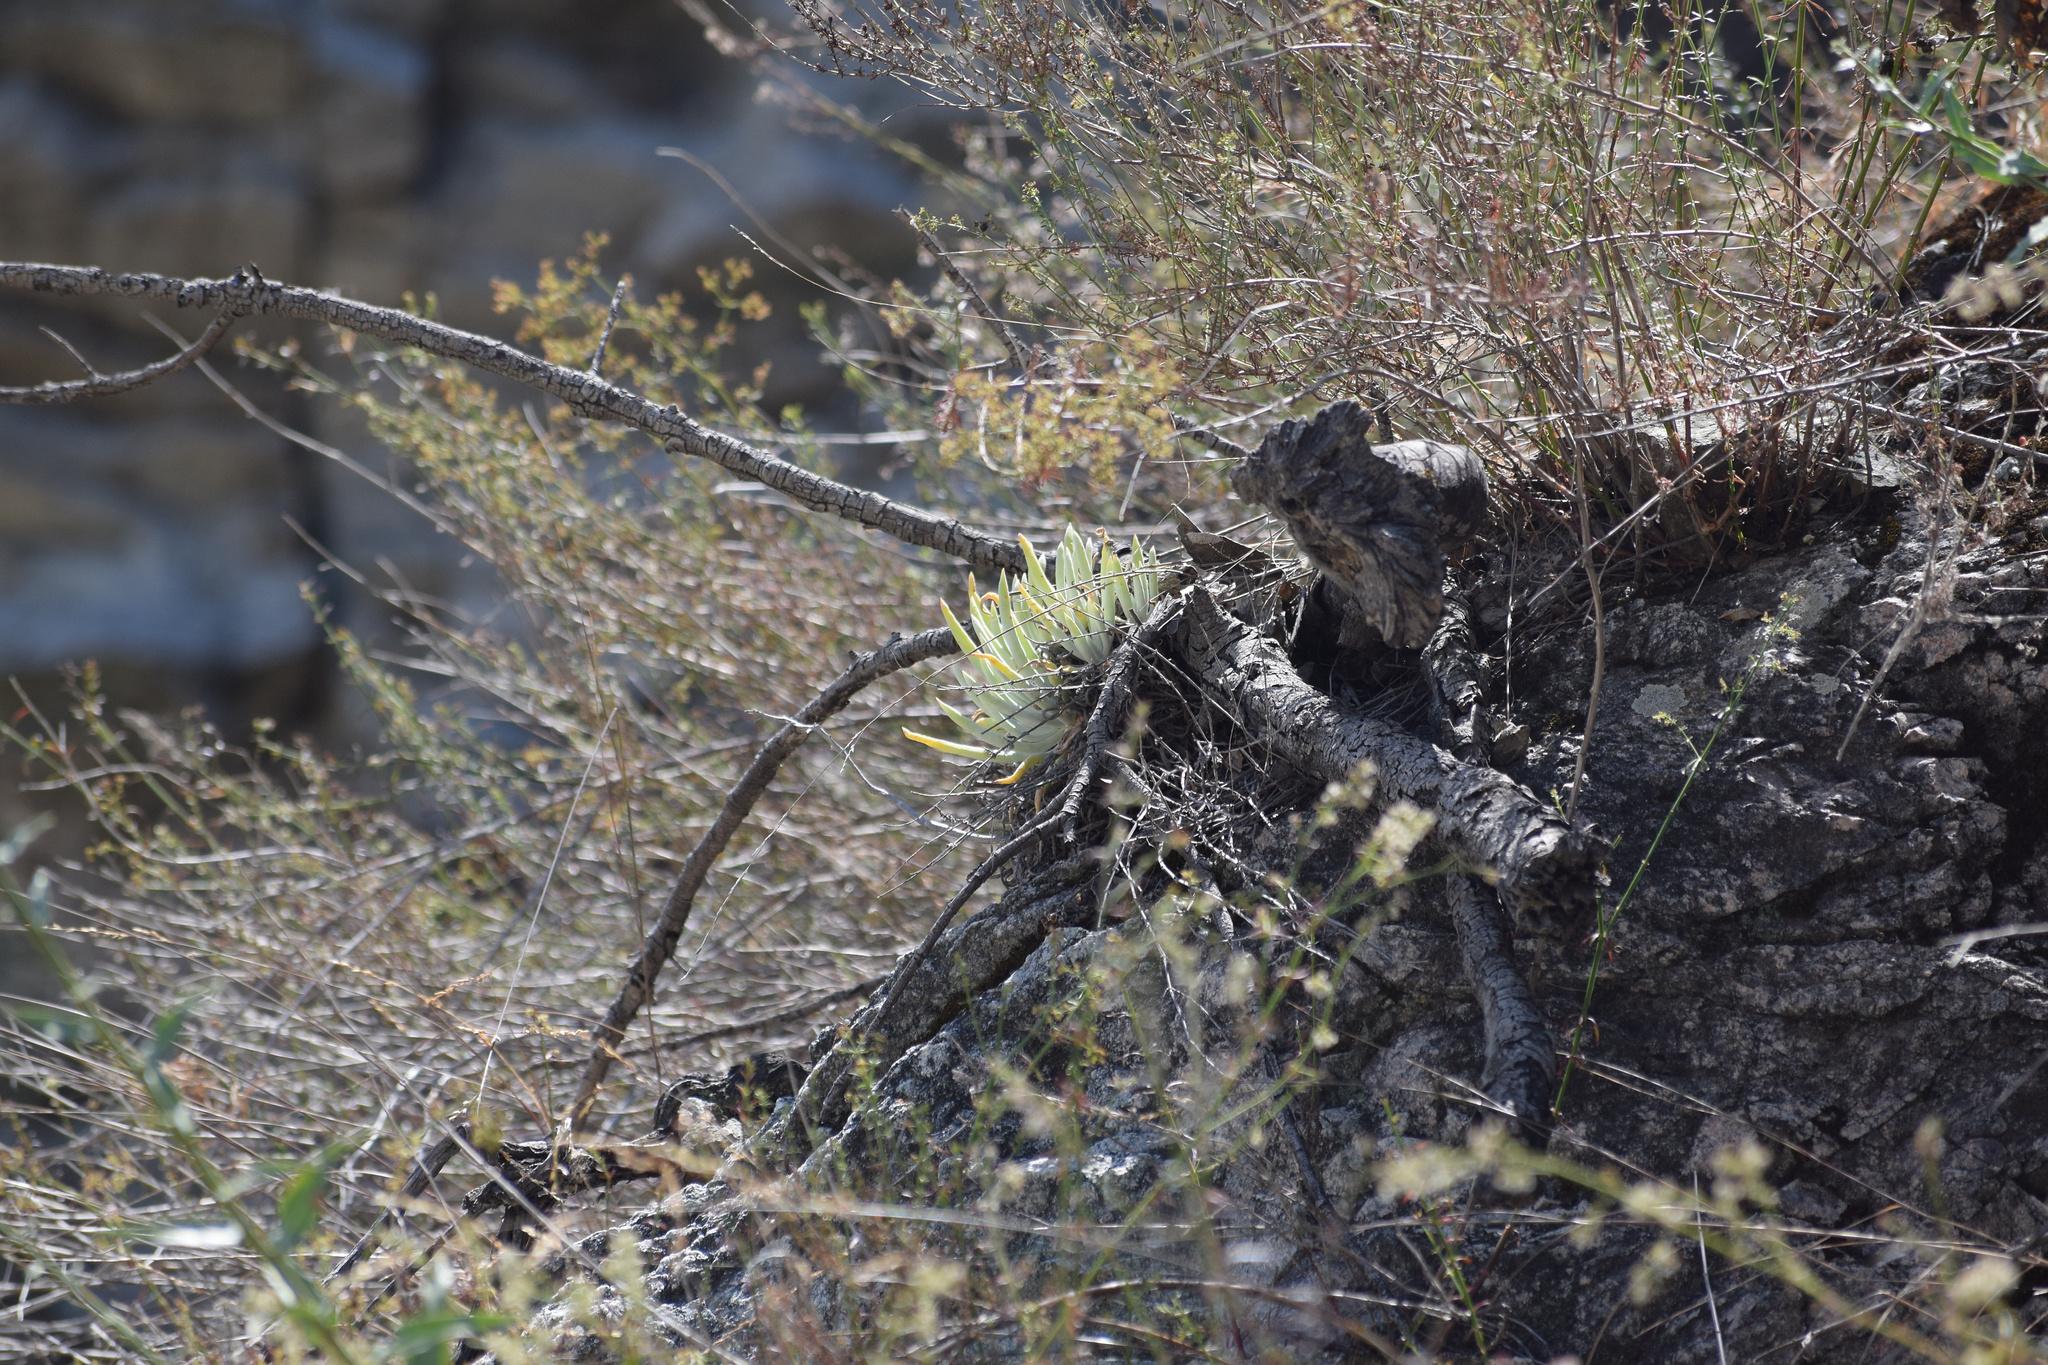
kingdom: Plantae
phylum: Tracheophyta
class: Magnoliopsida
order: Saxifragales
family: Crassulaceae
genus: Dudleya
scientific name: Dudleya densiflora
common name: San gabriel mountains dudleya
